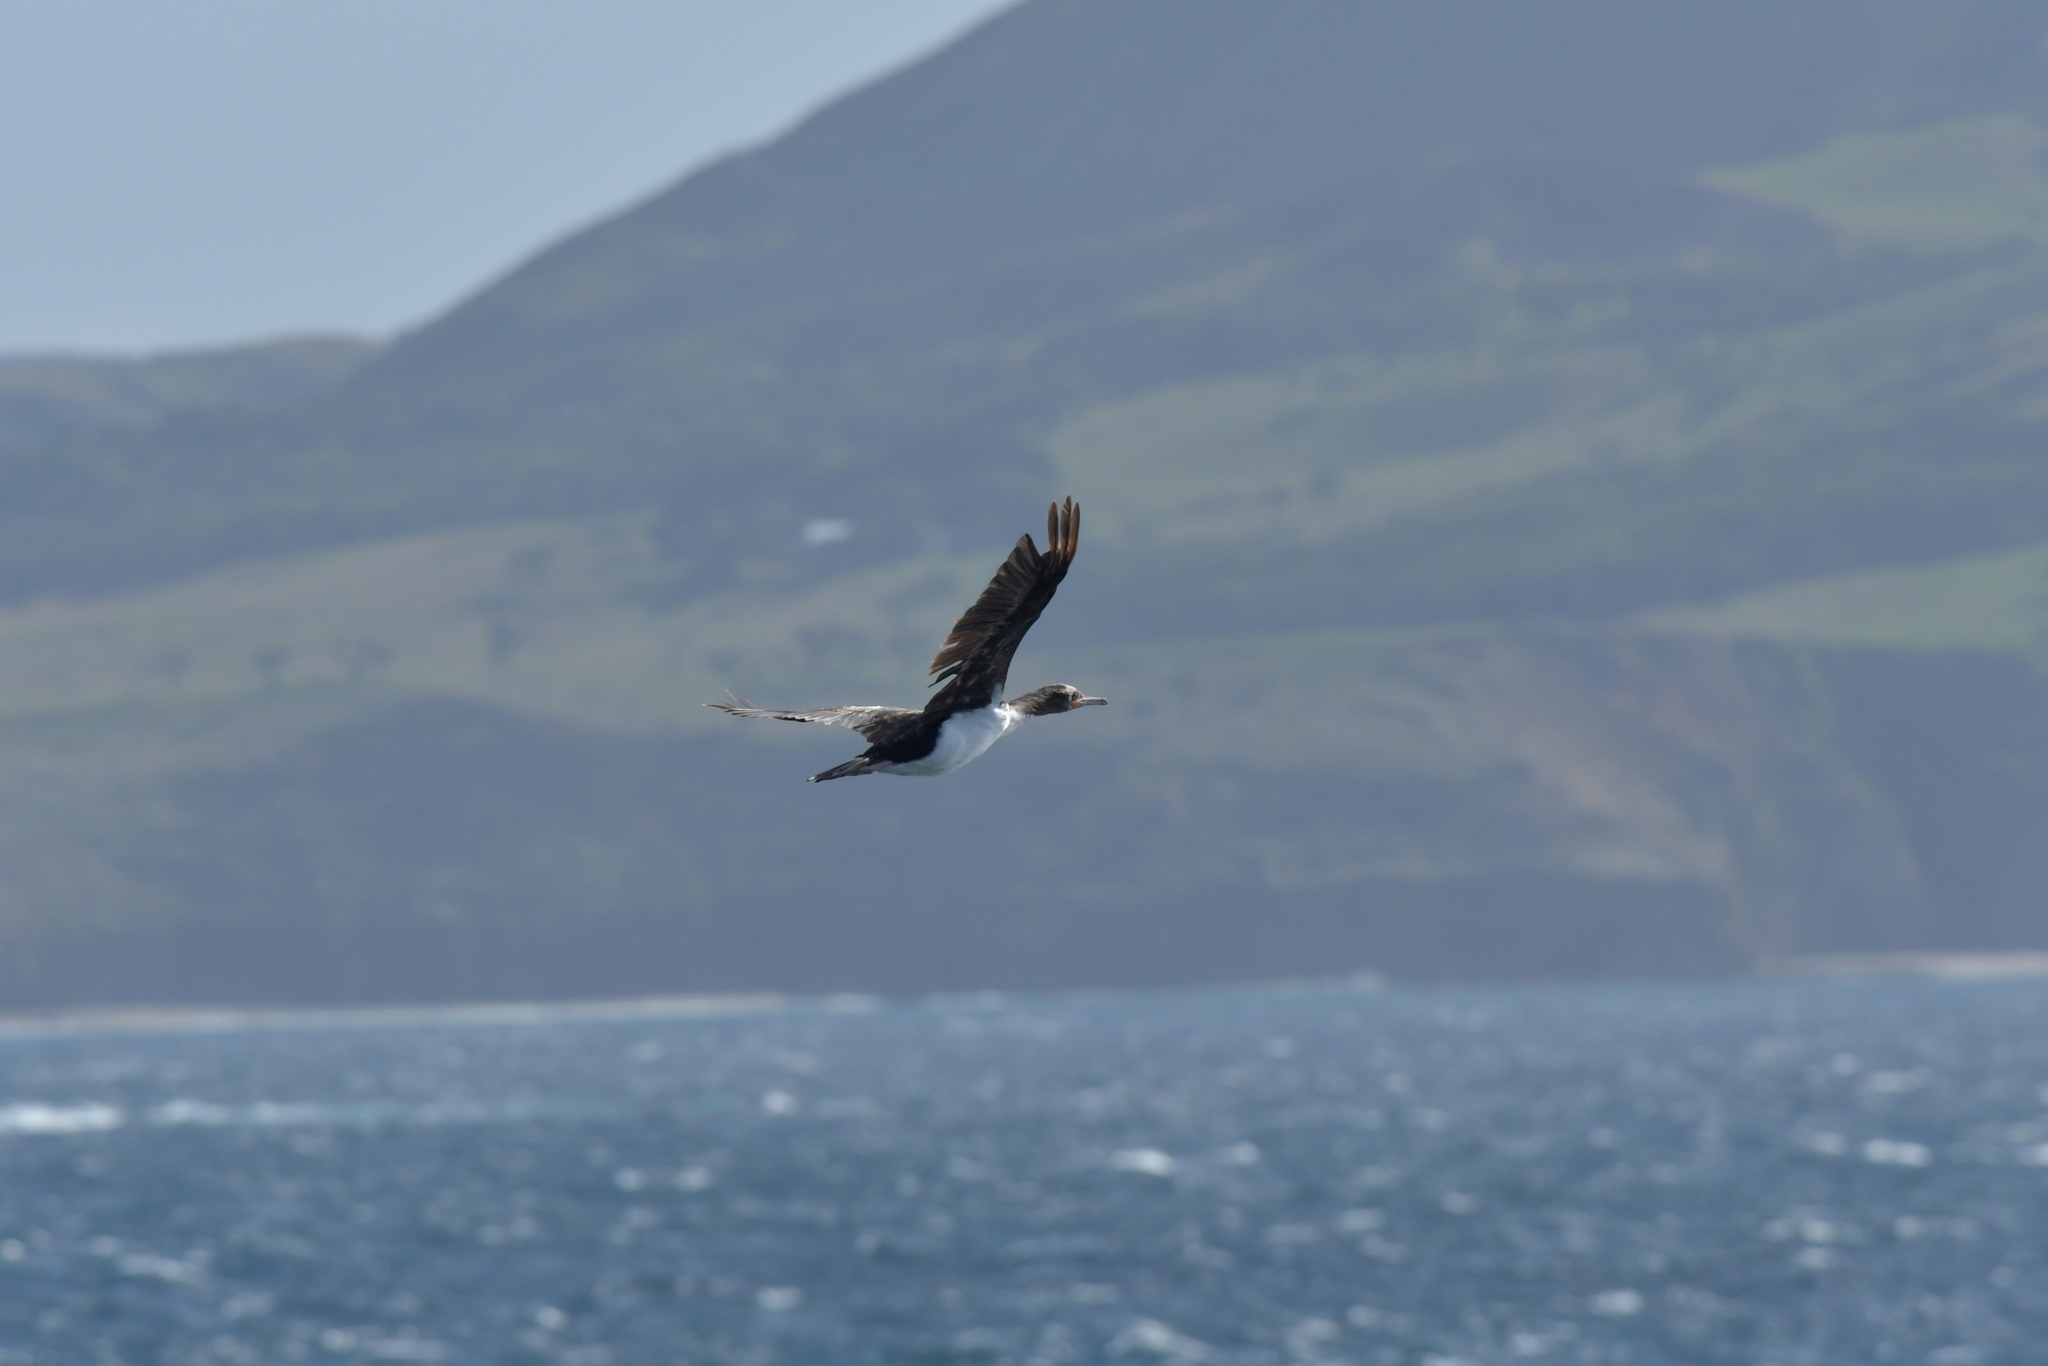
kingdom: Animalia
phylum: Chordata
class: Aves
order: Suliformes
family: Phalacrocoracidae
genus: Leucocarbo
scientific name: Leucocarbo onslowi
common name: Chatham shag
